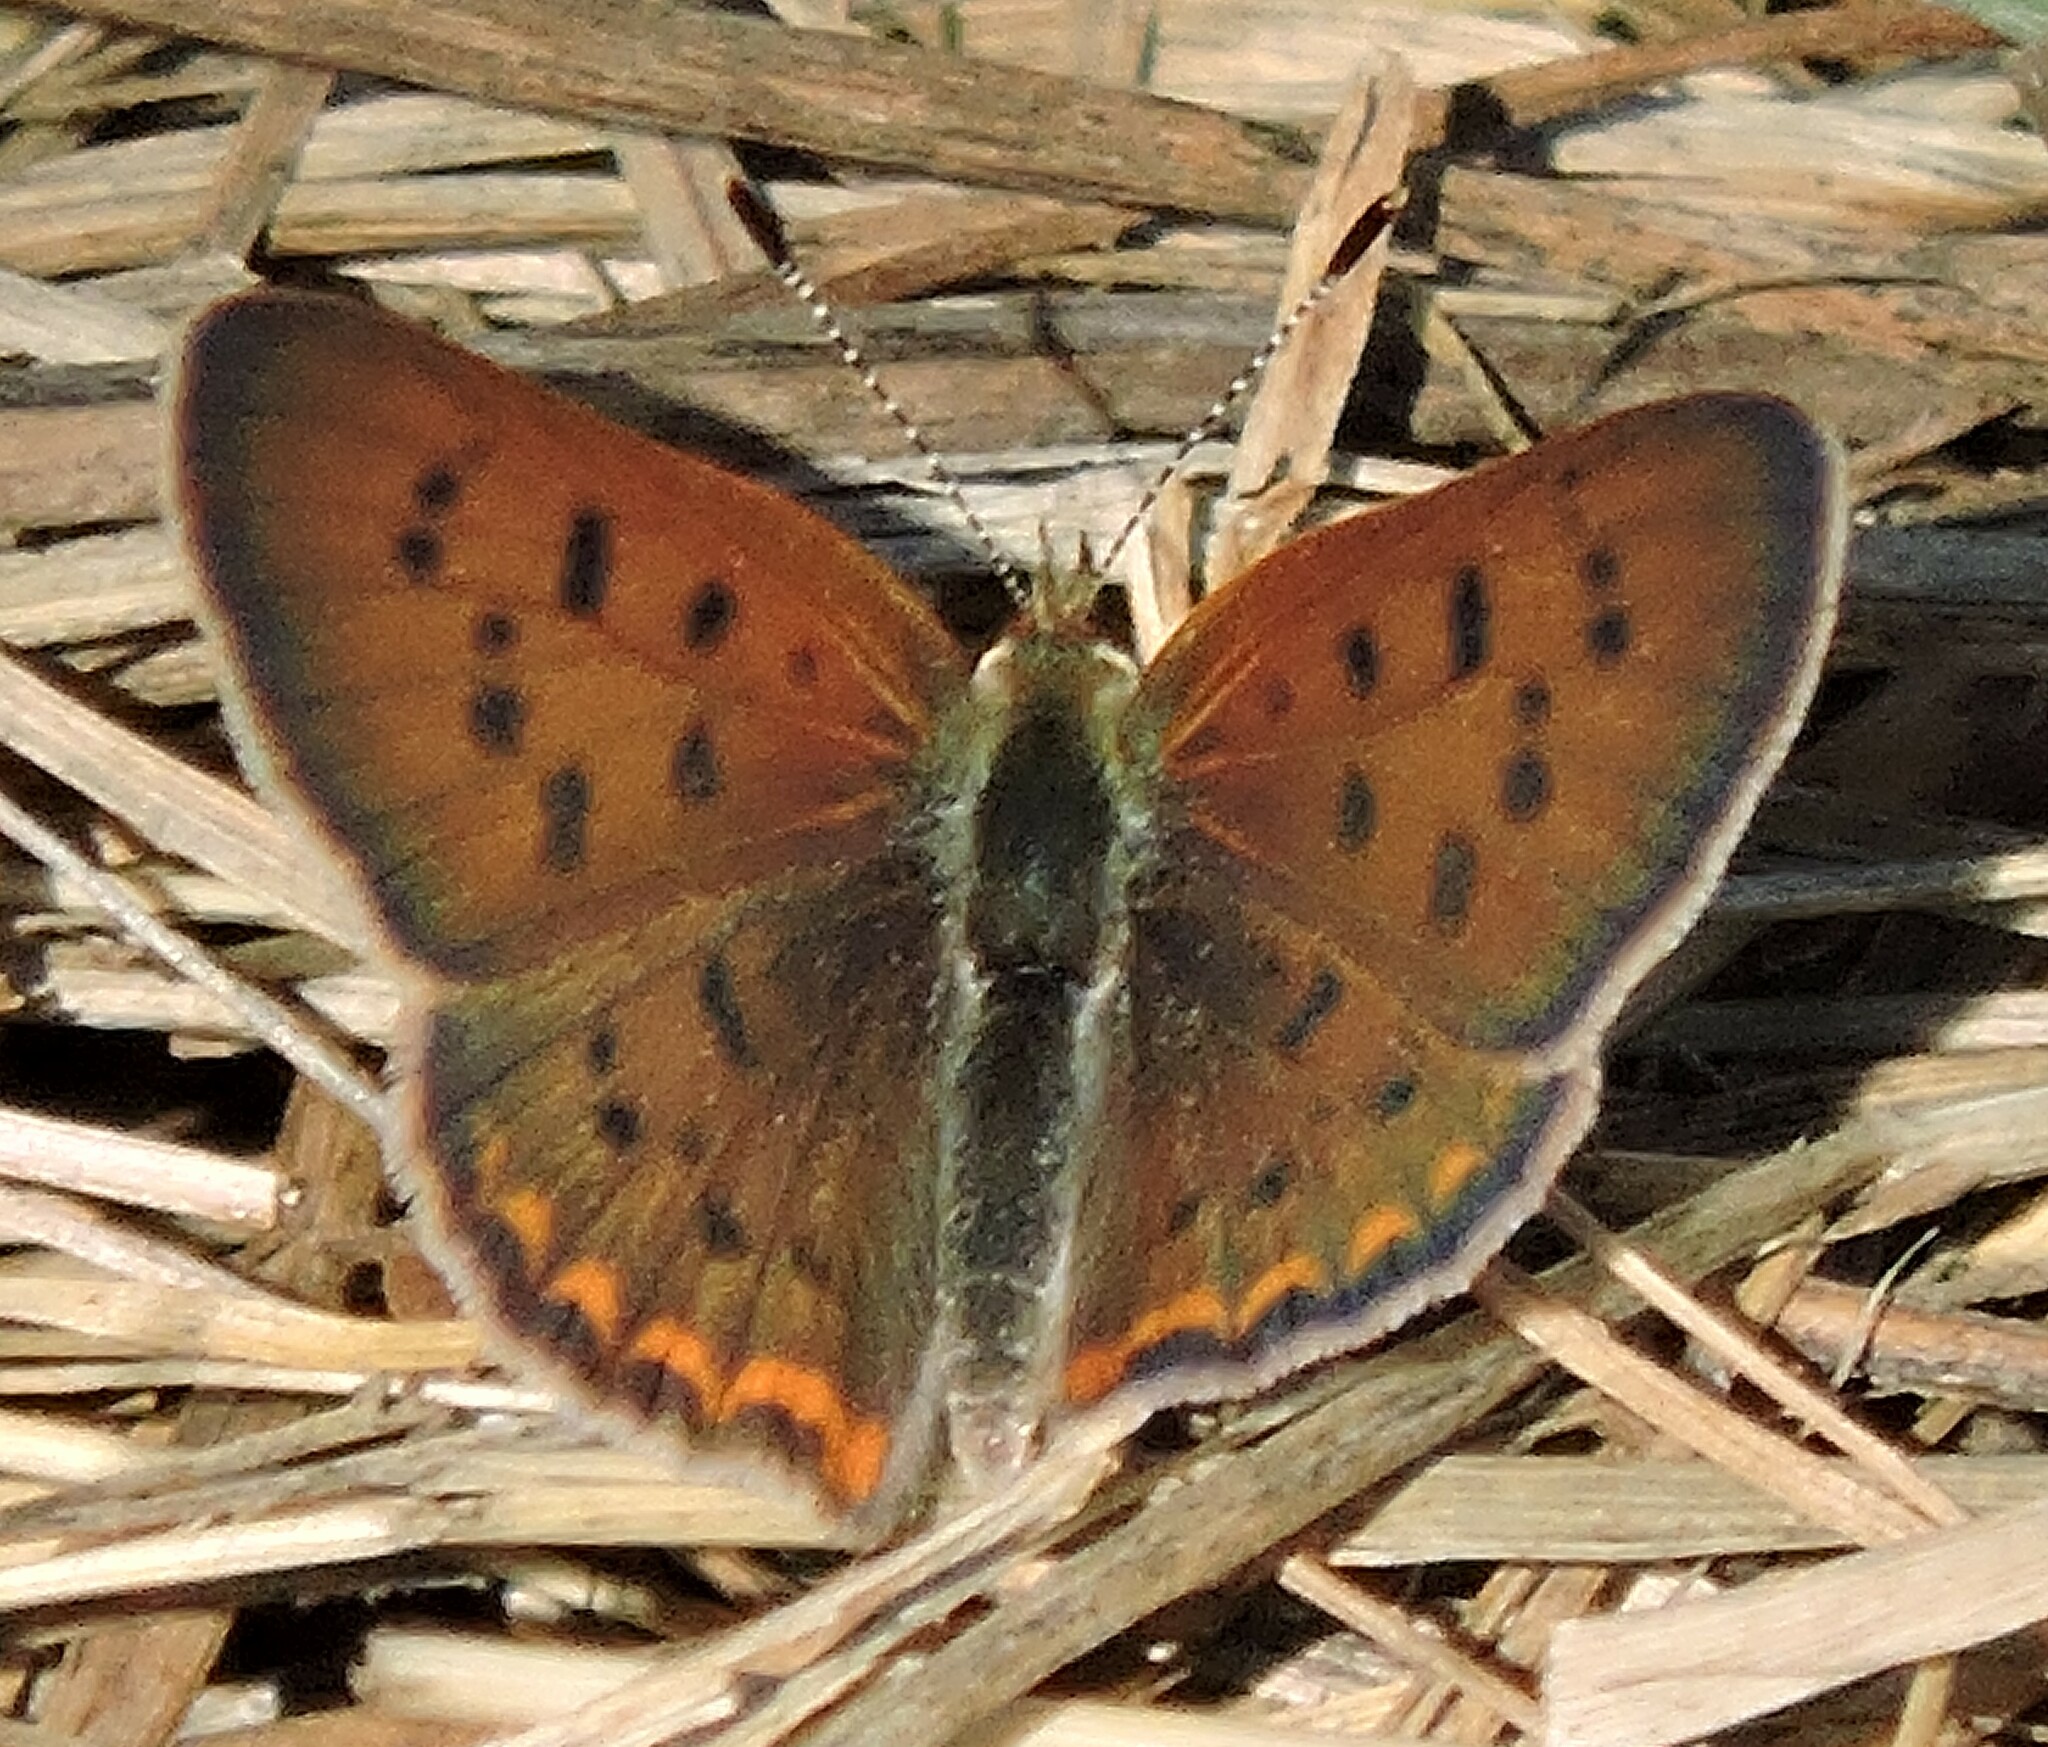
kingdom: Animalia
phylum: Arthropoda
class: Insecta
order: Lepidoptera
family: Lycaenidae
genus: Tharsalea
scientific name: Tharsalea helloides
